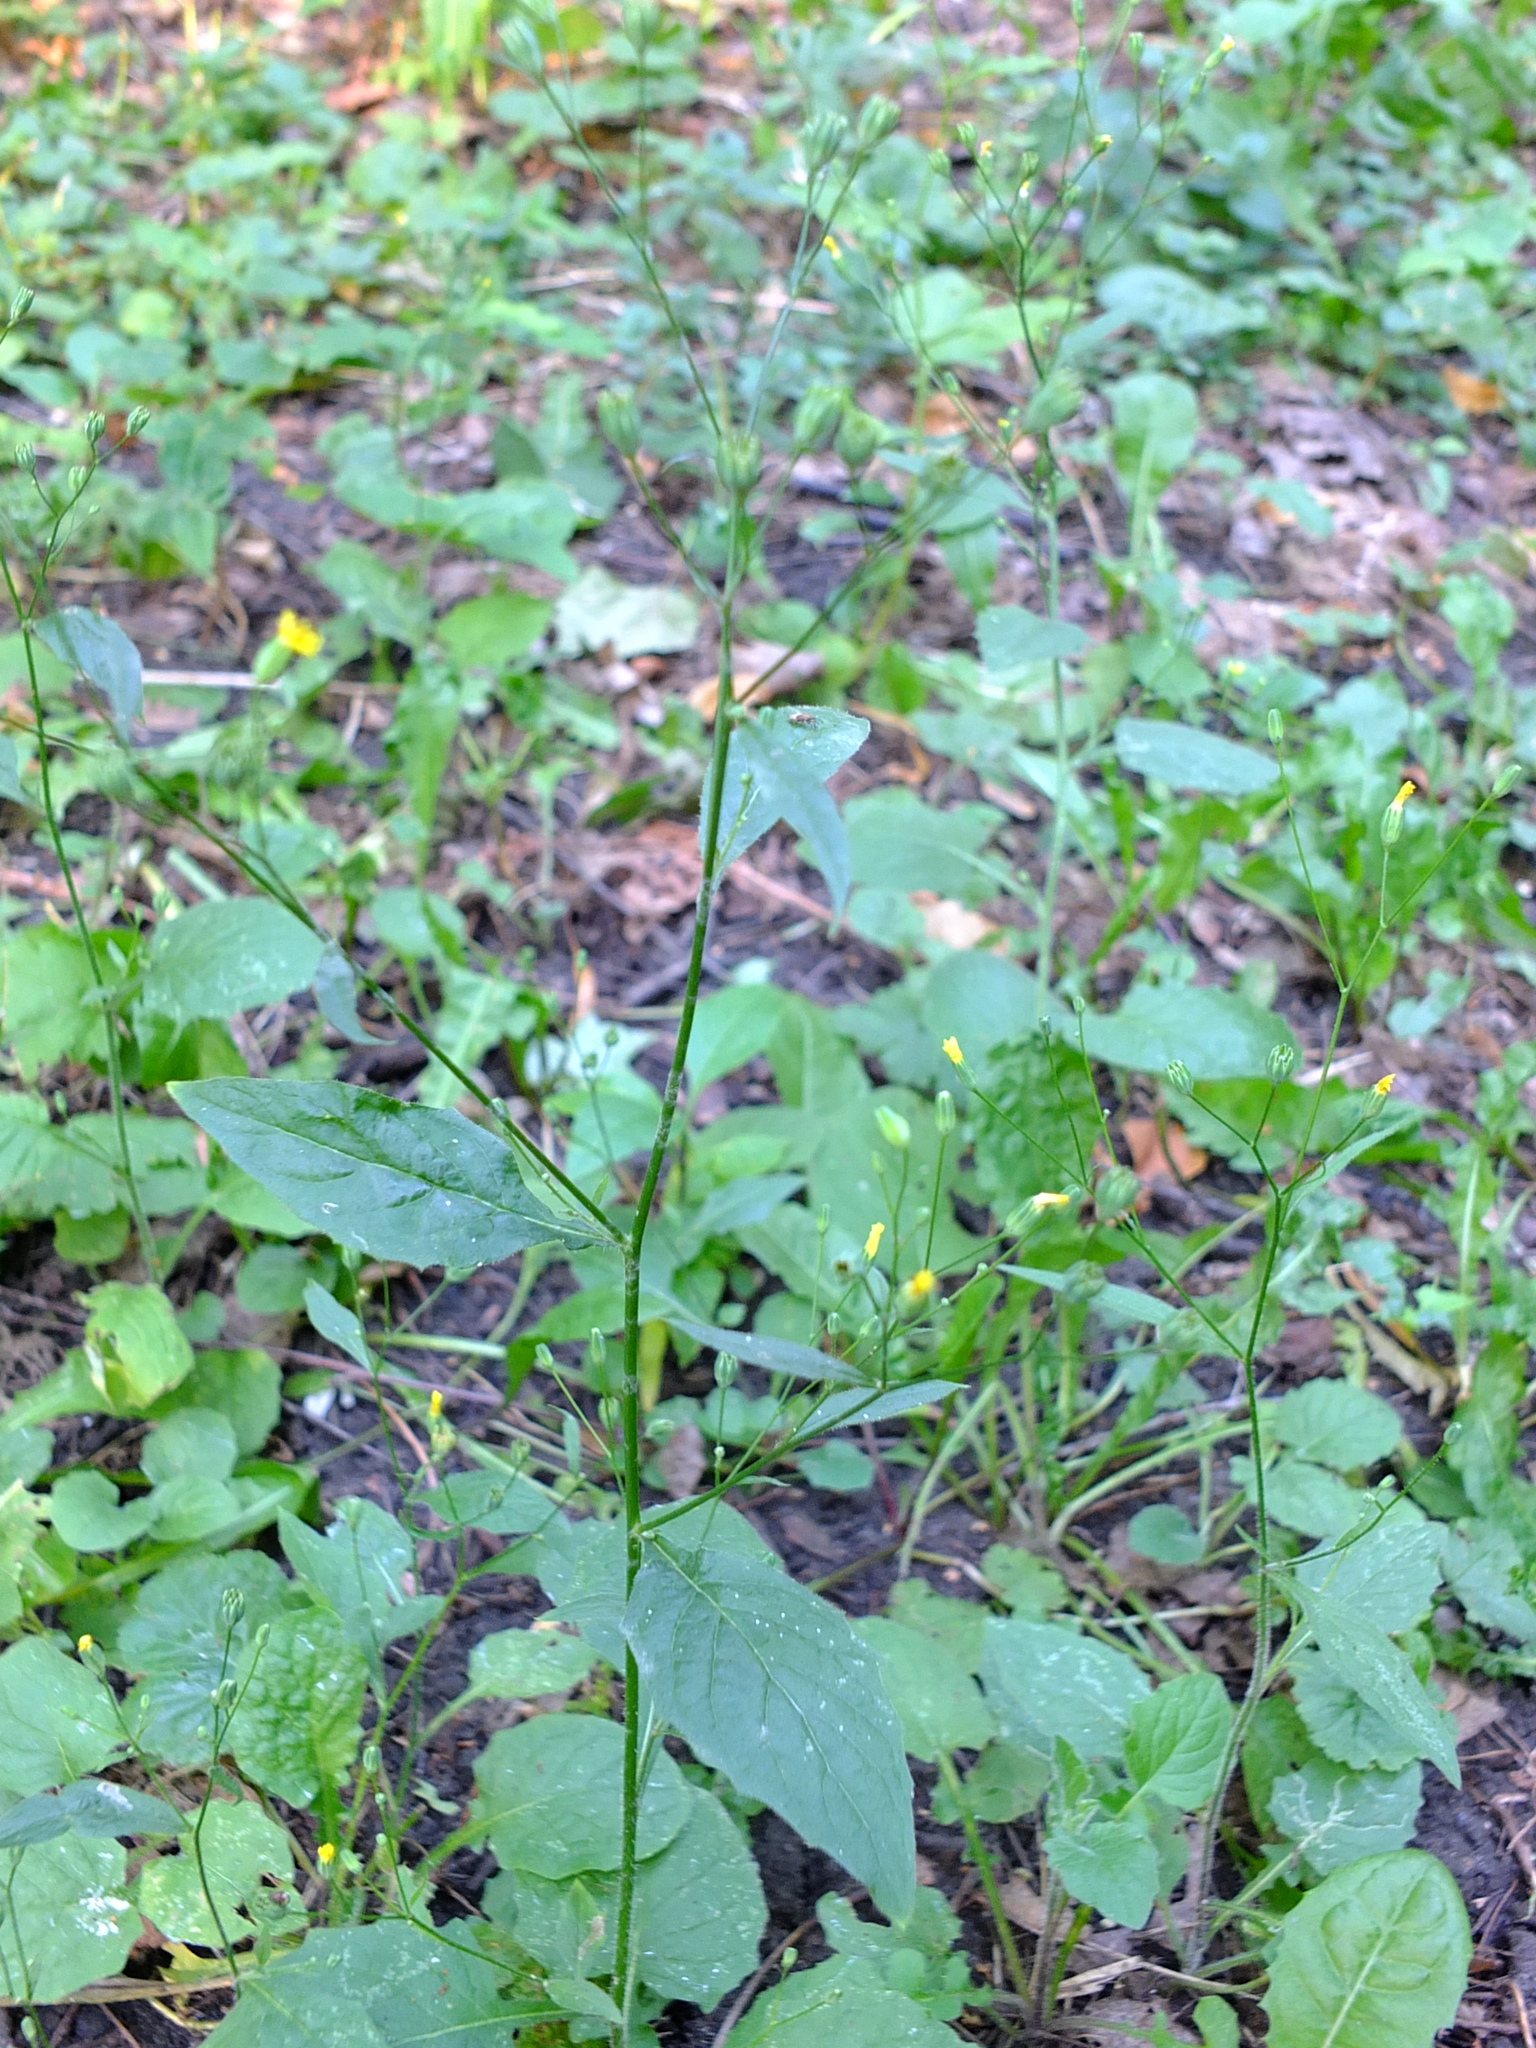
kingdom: Plantae
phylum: Tracheophyta
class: Magnoliopsida
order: Asterales
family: Asteraceae
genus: Lapsana
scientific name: Lapsana communis
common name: Nipplewort
